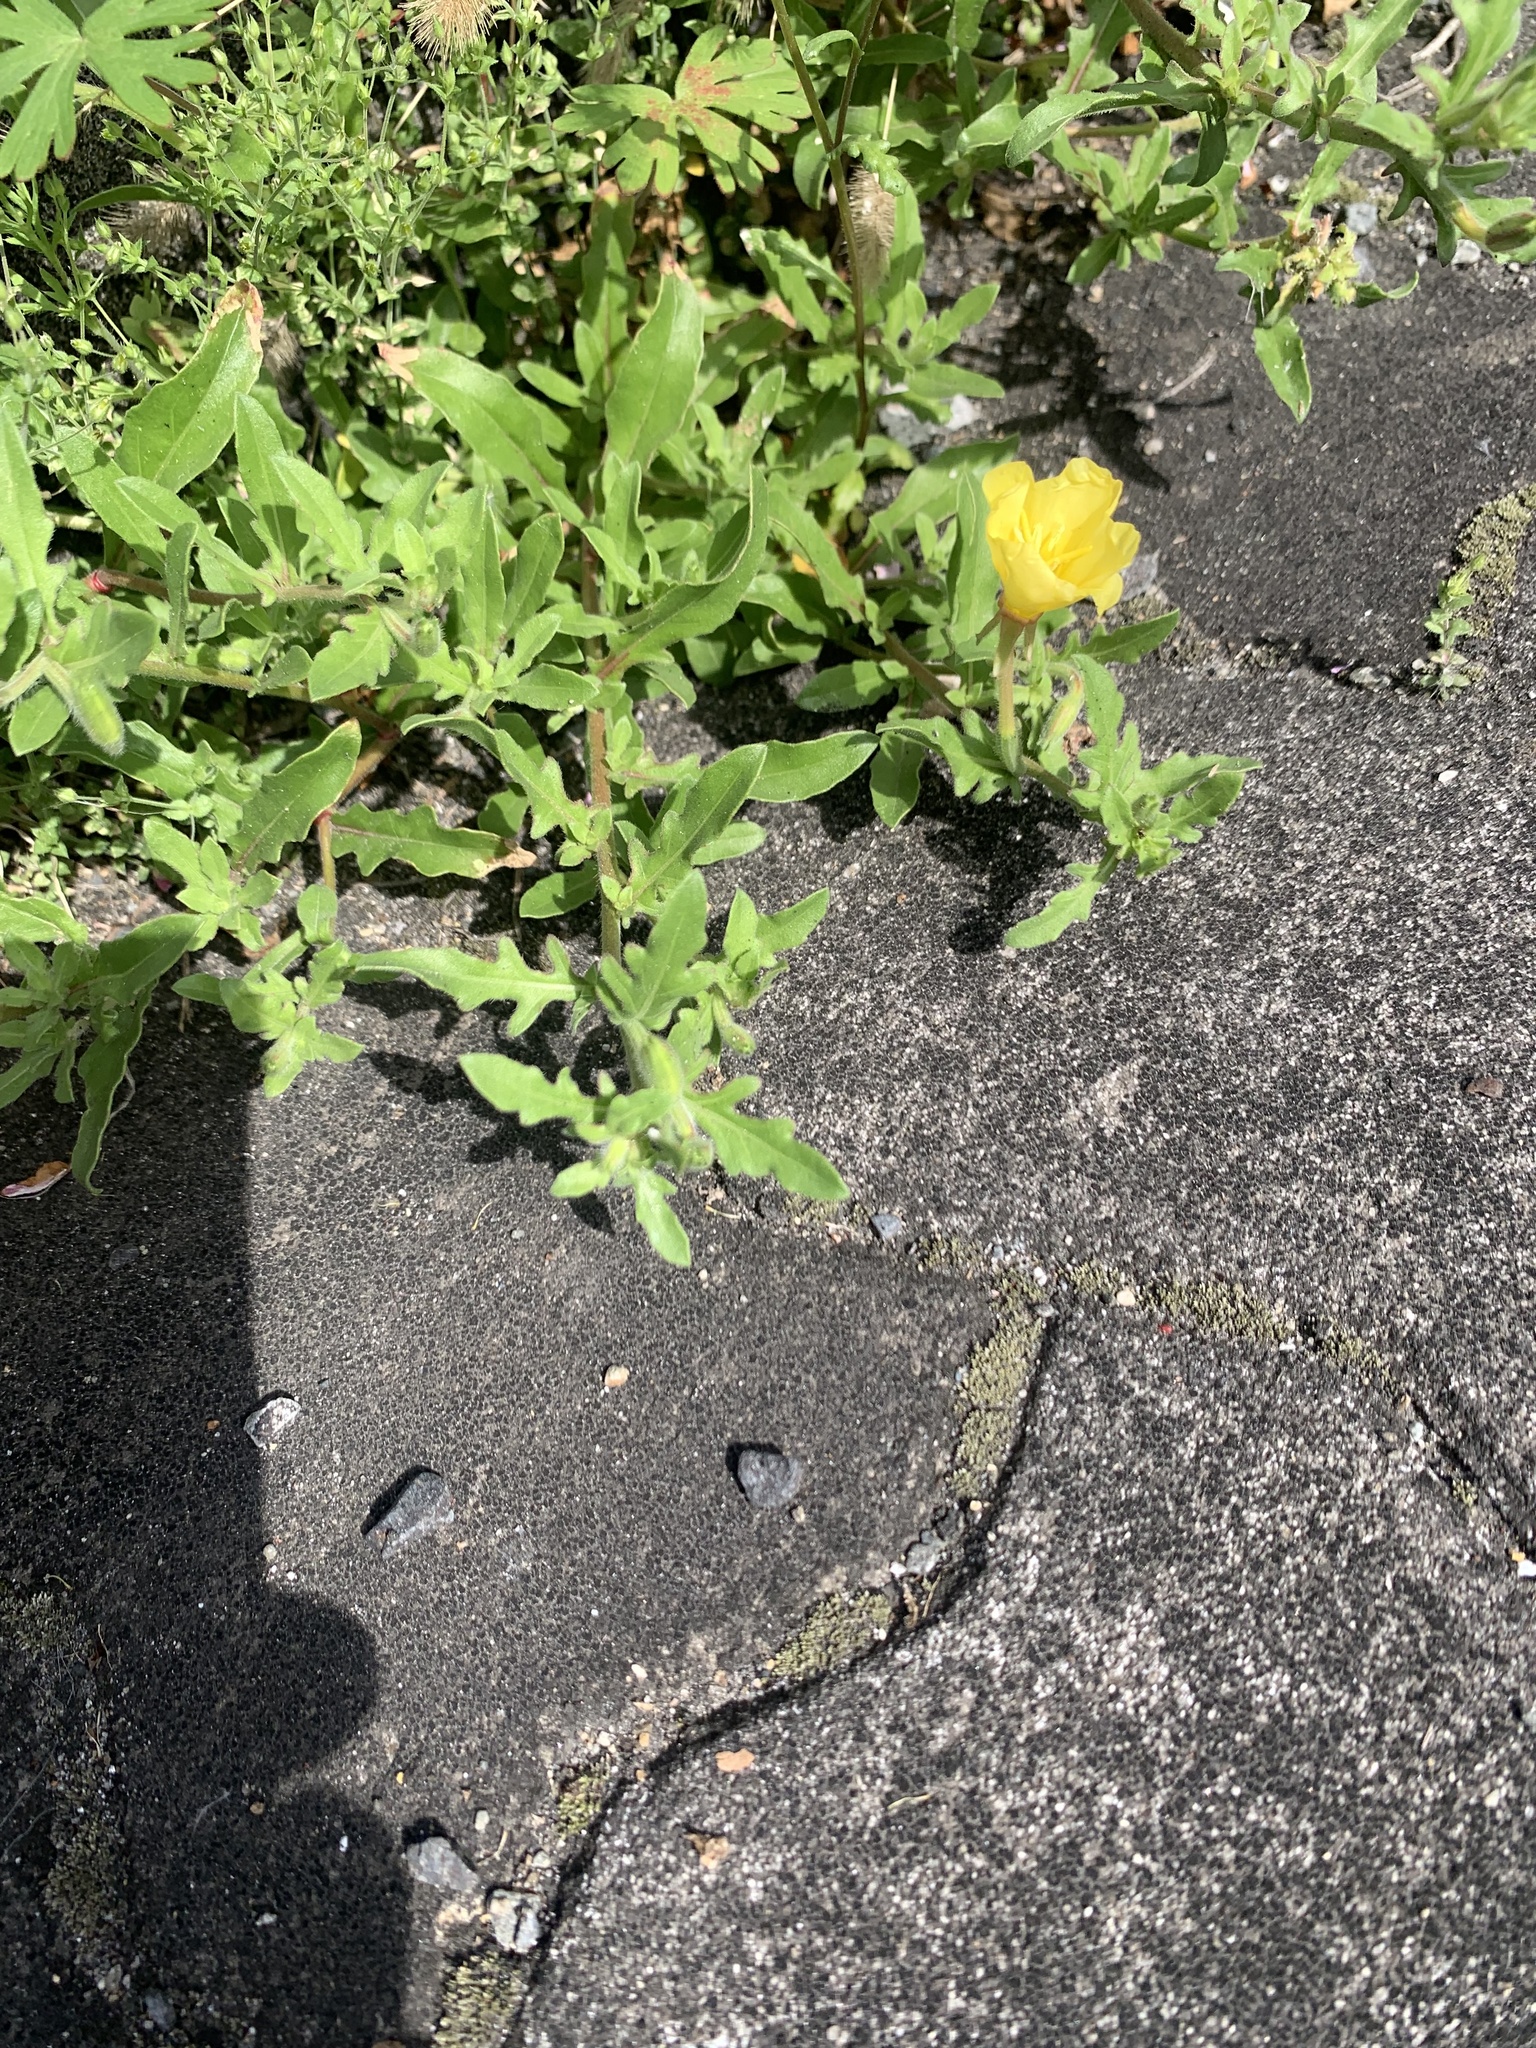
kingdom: Plantae
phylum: Tracheophyta
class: Magnoliopsida
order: Myrtales
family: Onagraceae
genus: Oenothera
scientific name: Oenothera laciniata
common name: Cut-leaved evening-primrose
